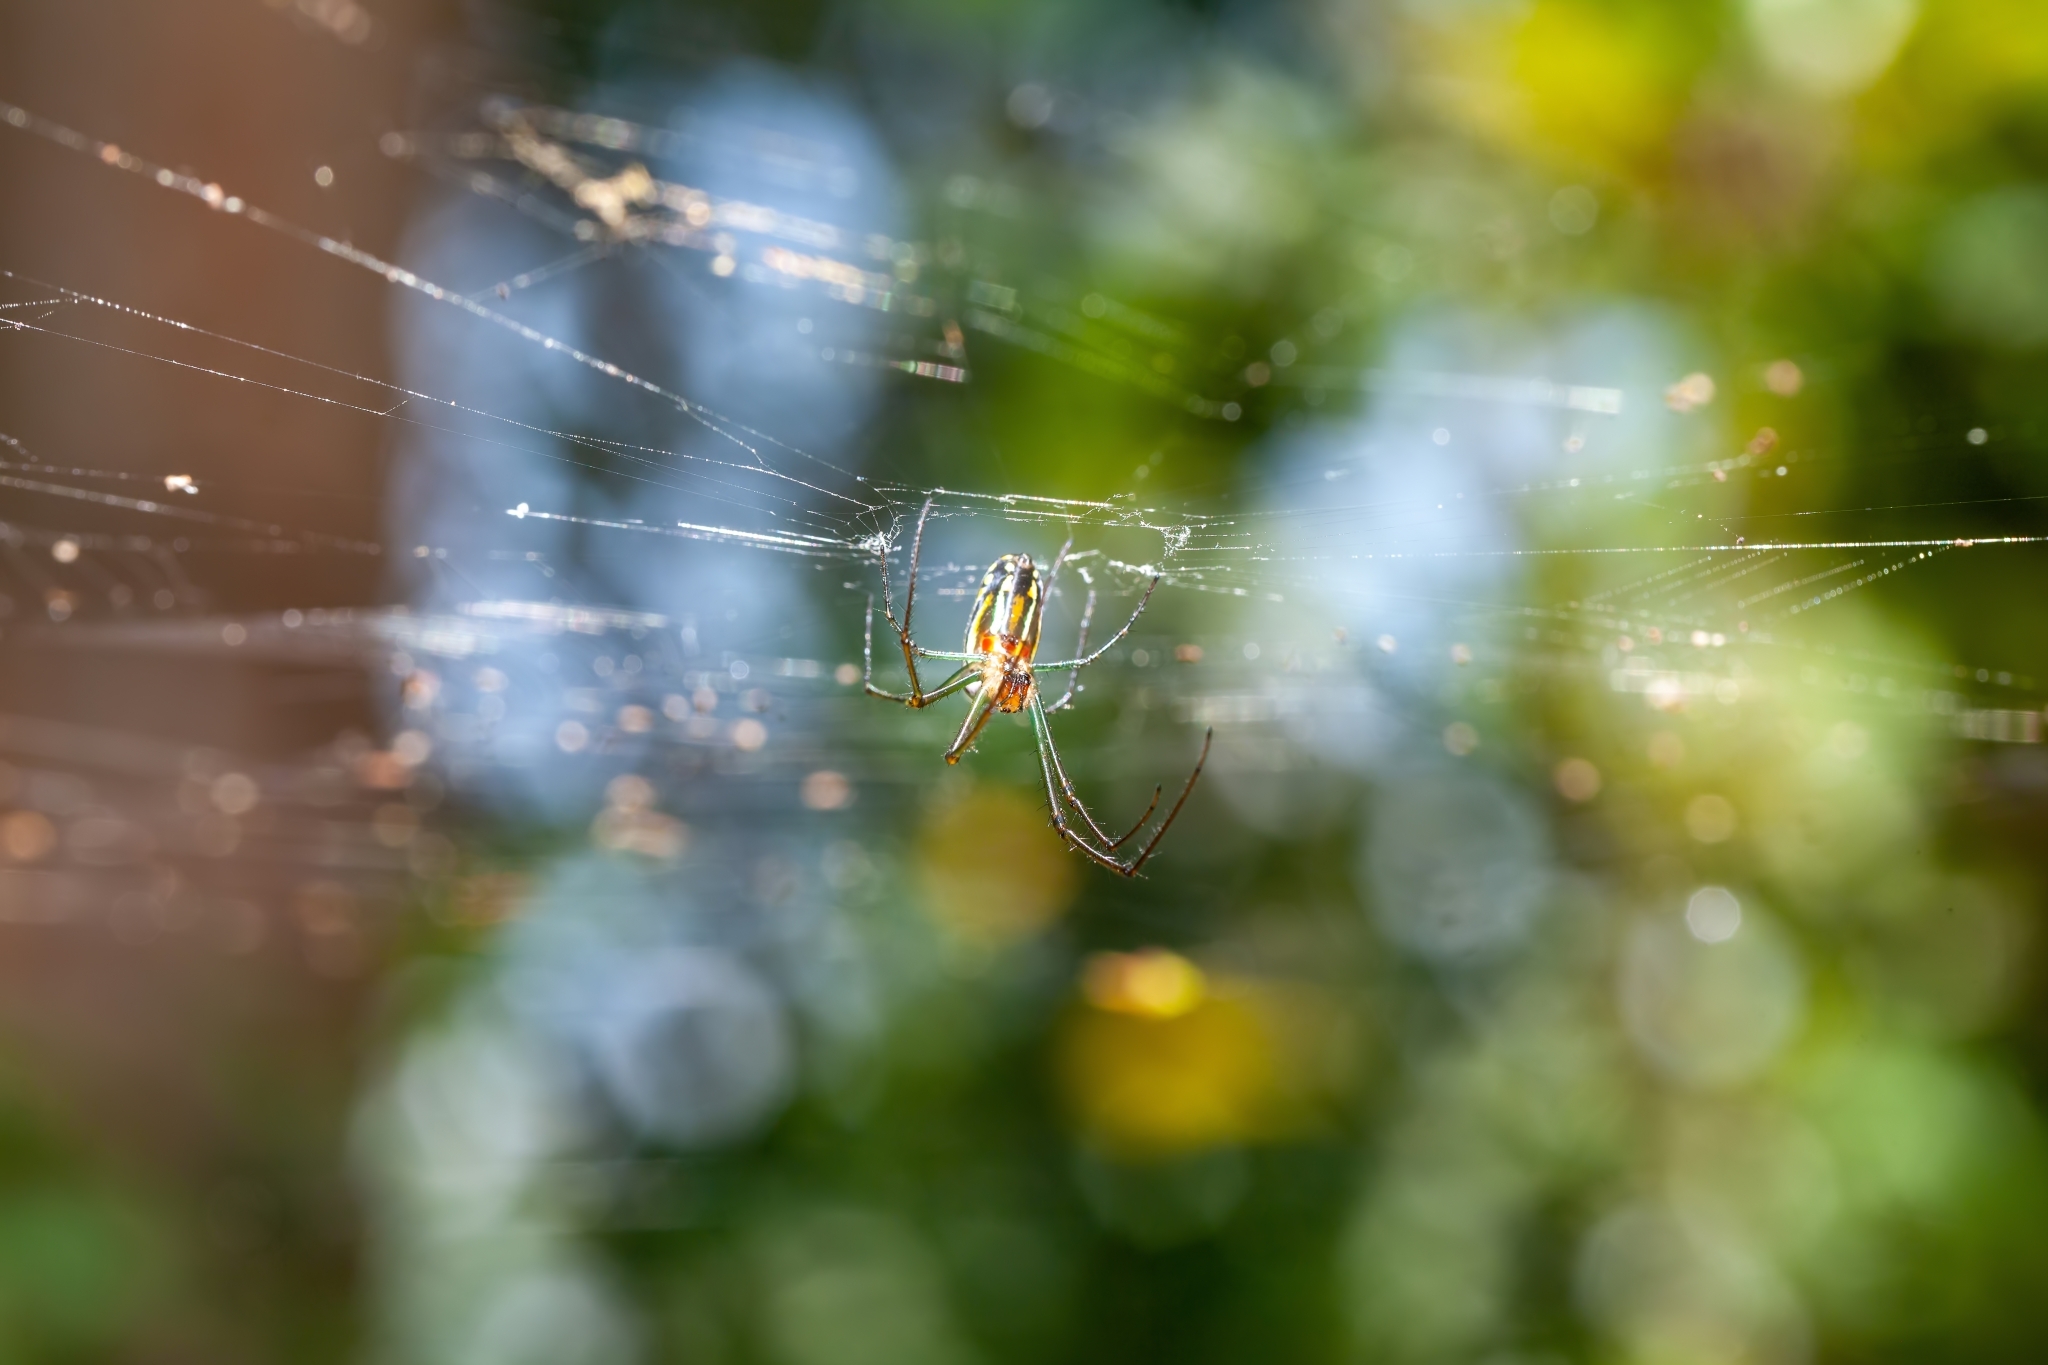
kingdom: Animalia
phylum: Arthropoda
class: Arachnida
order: Araneae
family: Tetragnathidae
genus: Leucauge
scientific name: Leucauge argyra
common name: Longjawed orb weavers
